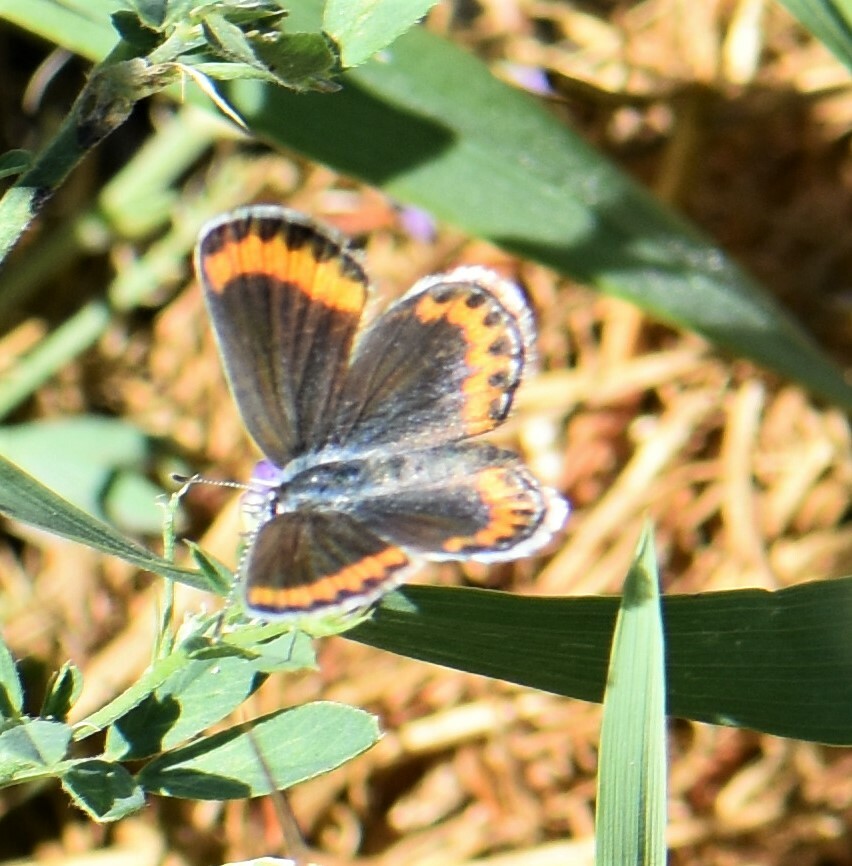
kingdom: Animalia
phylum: Arthropoda
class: Insecta
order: Lepidoptera
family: Lycaenidae
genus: Lycaeides
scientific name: Lycaeides melissa
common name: Melissa blue
